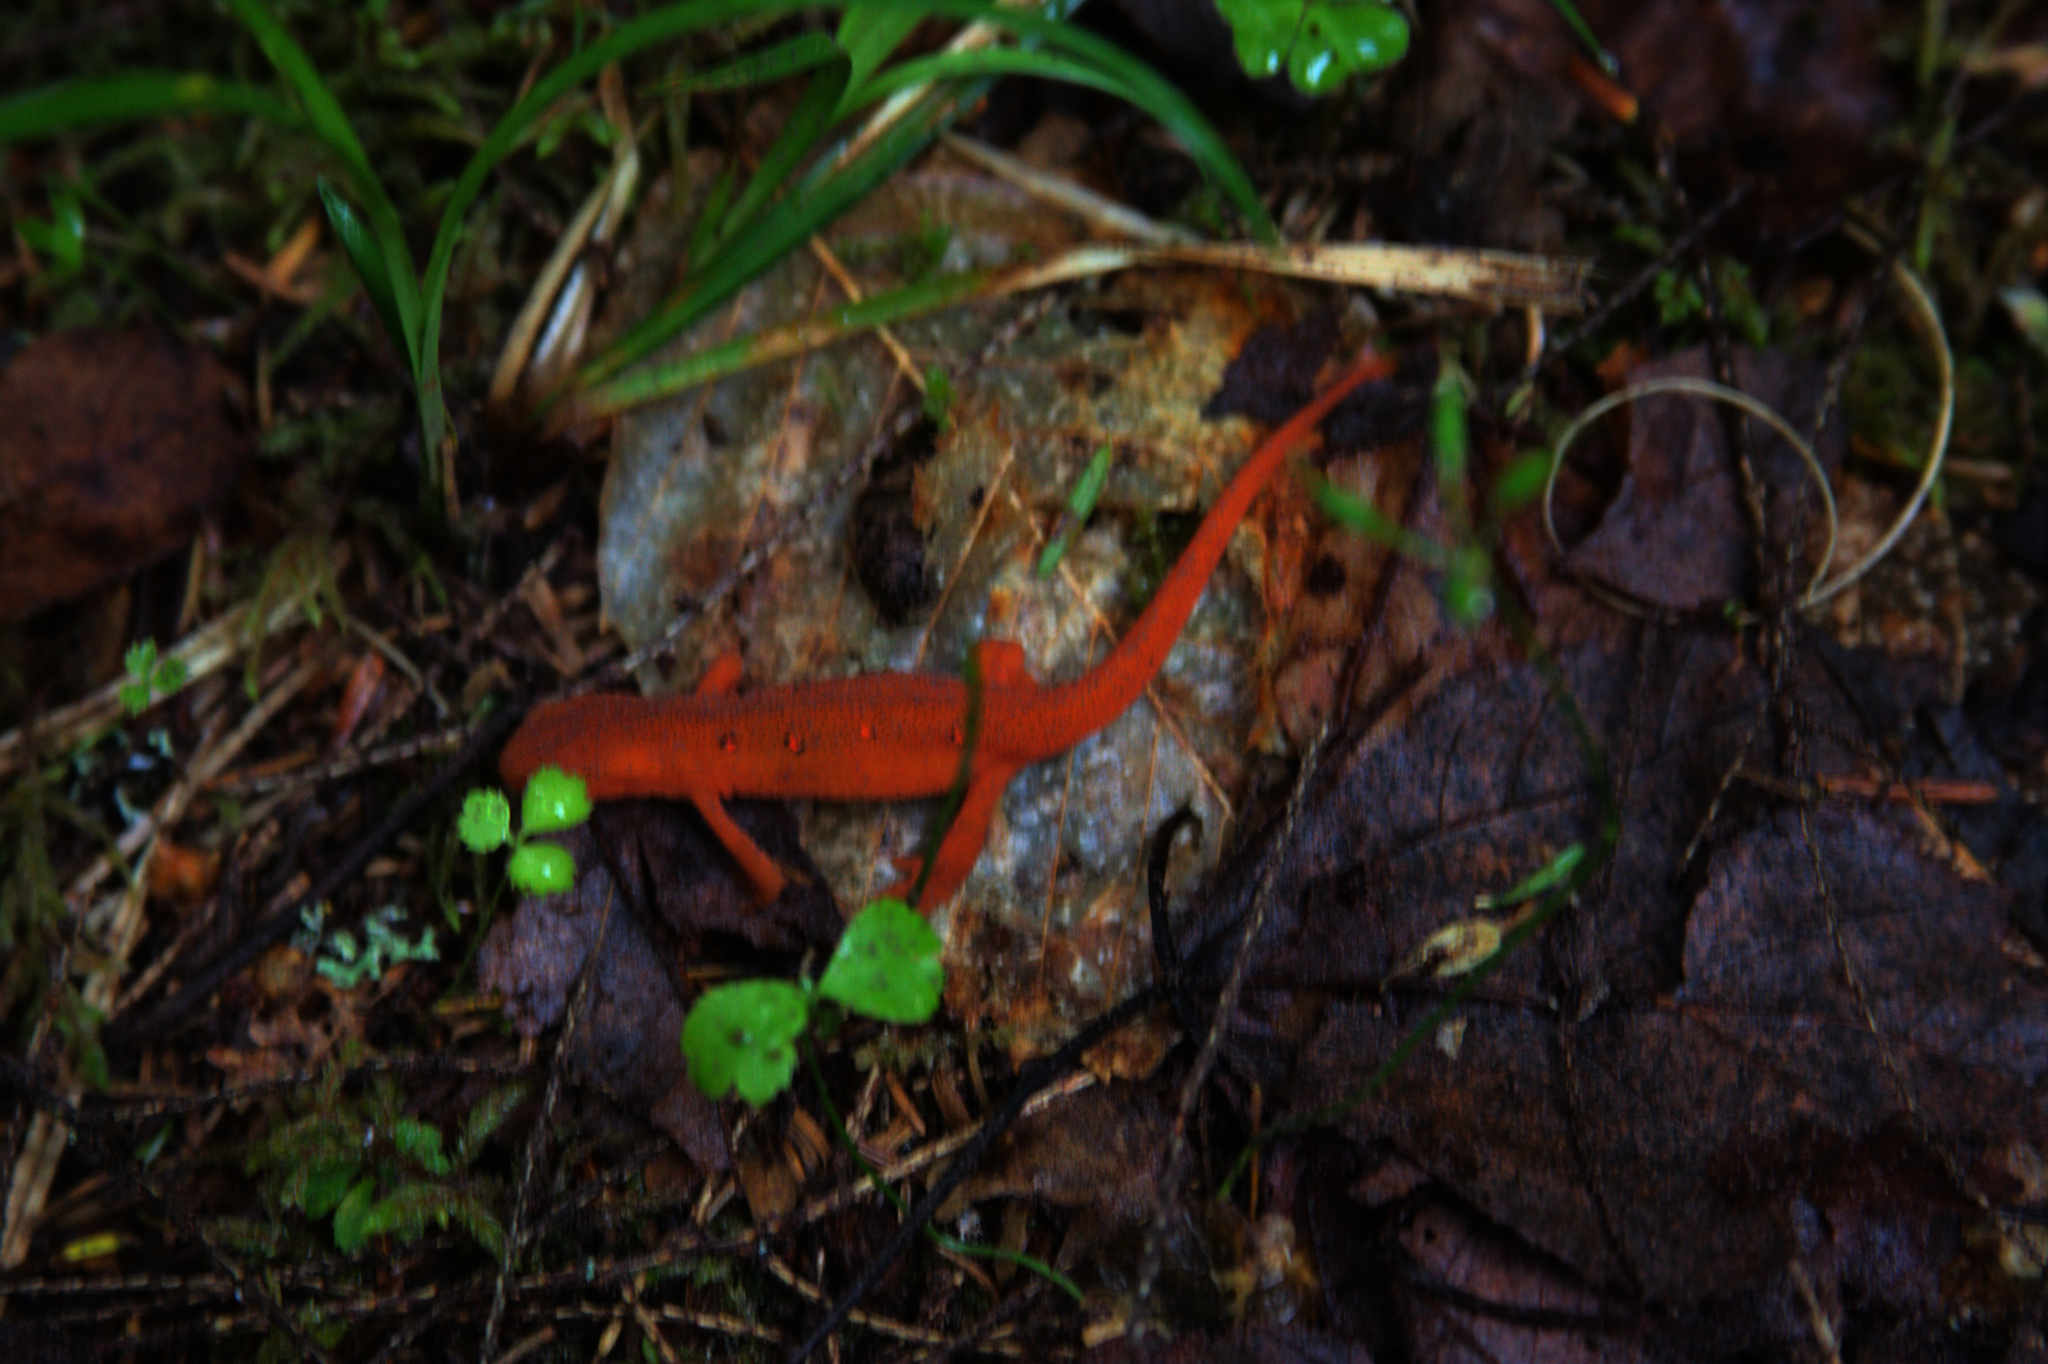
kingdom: Animalia
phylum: Chordata
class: Amphibia
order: Caudata
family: Salamandridae
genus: Notophthalmus
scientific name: Notophthalmus viridescens
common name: Eastern newt
